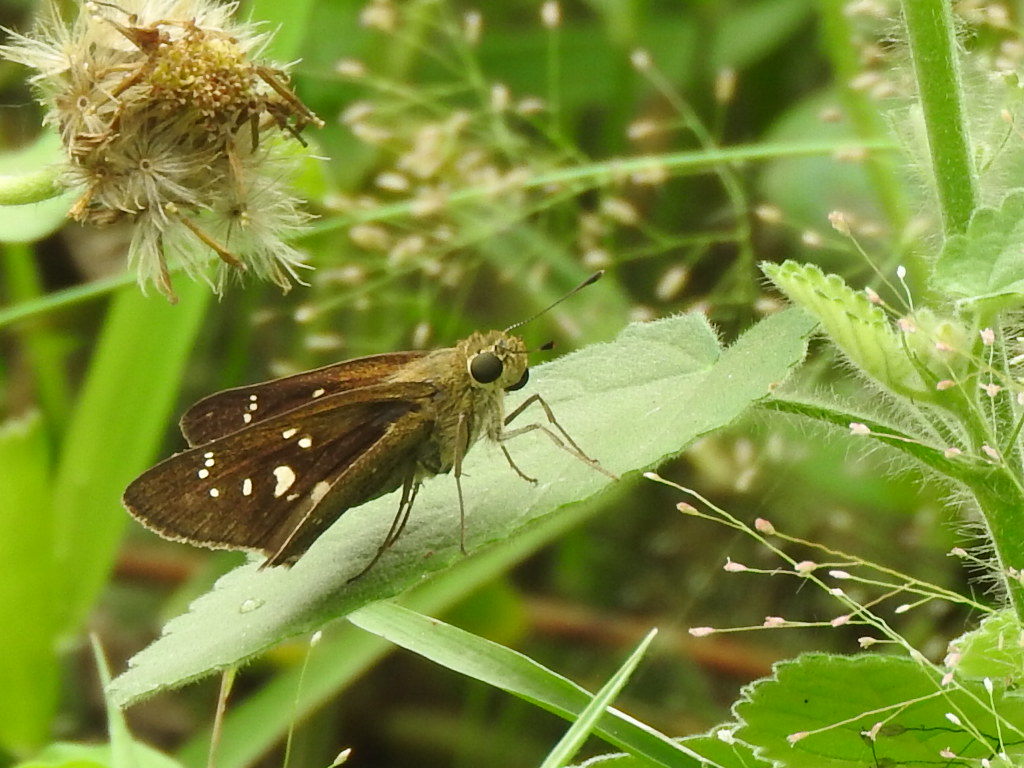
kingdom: Animalia
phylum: Arthropoda
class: Insecta
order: Lepidoptera
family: Hesperiidae
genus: Pelopidas
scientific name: Pelopidas mathias
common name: Black-branded swift
